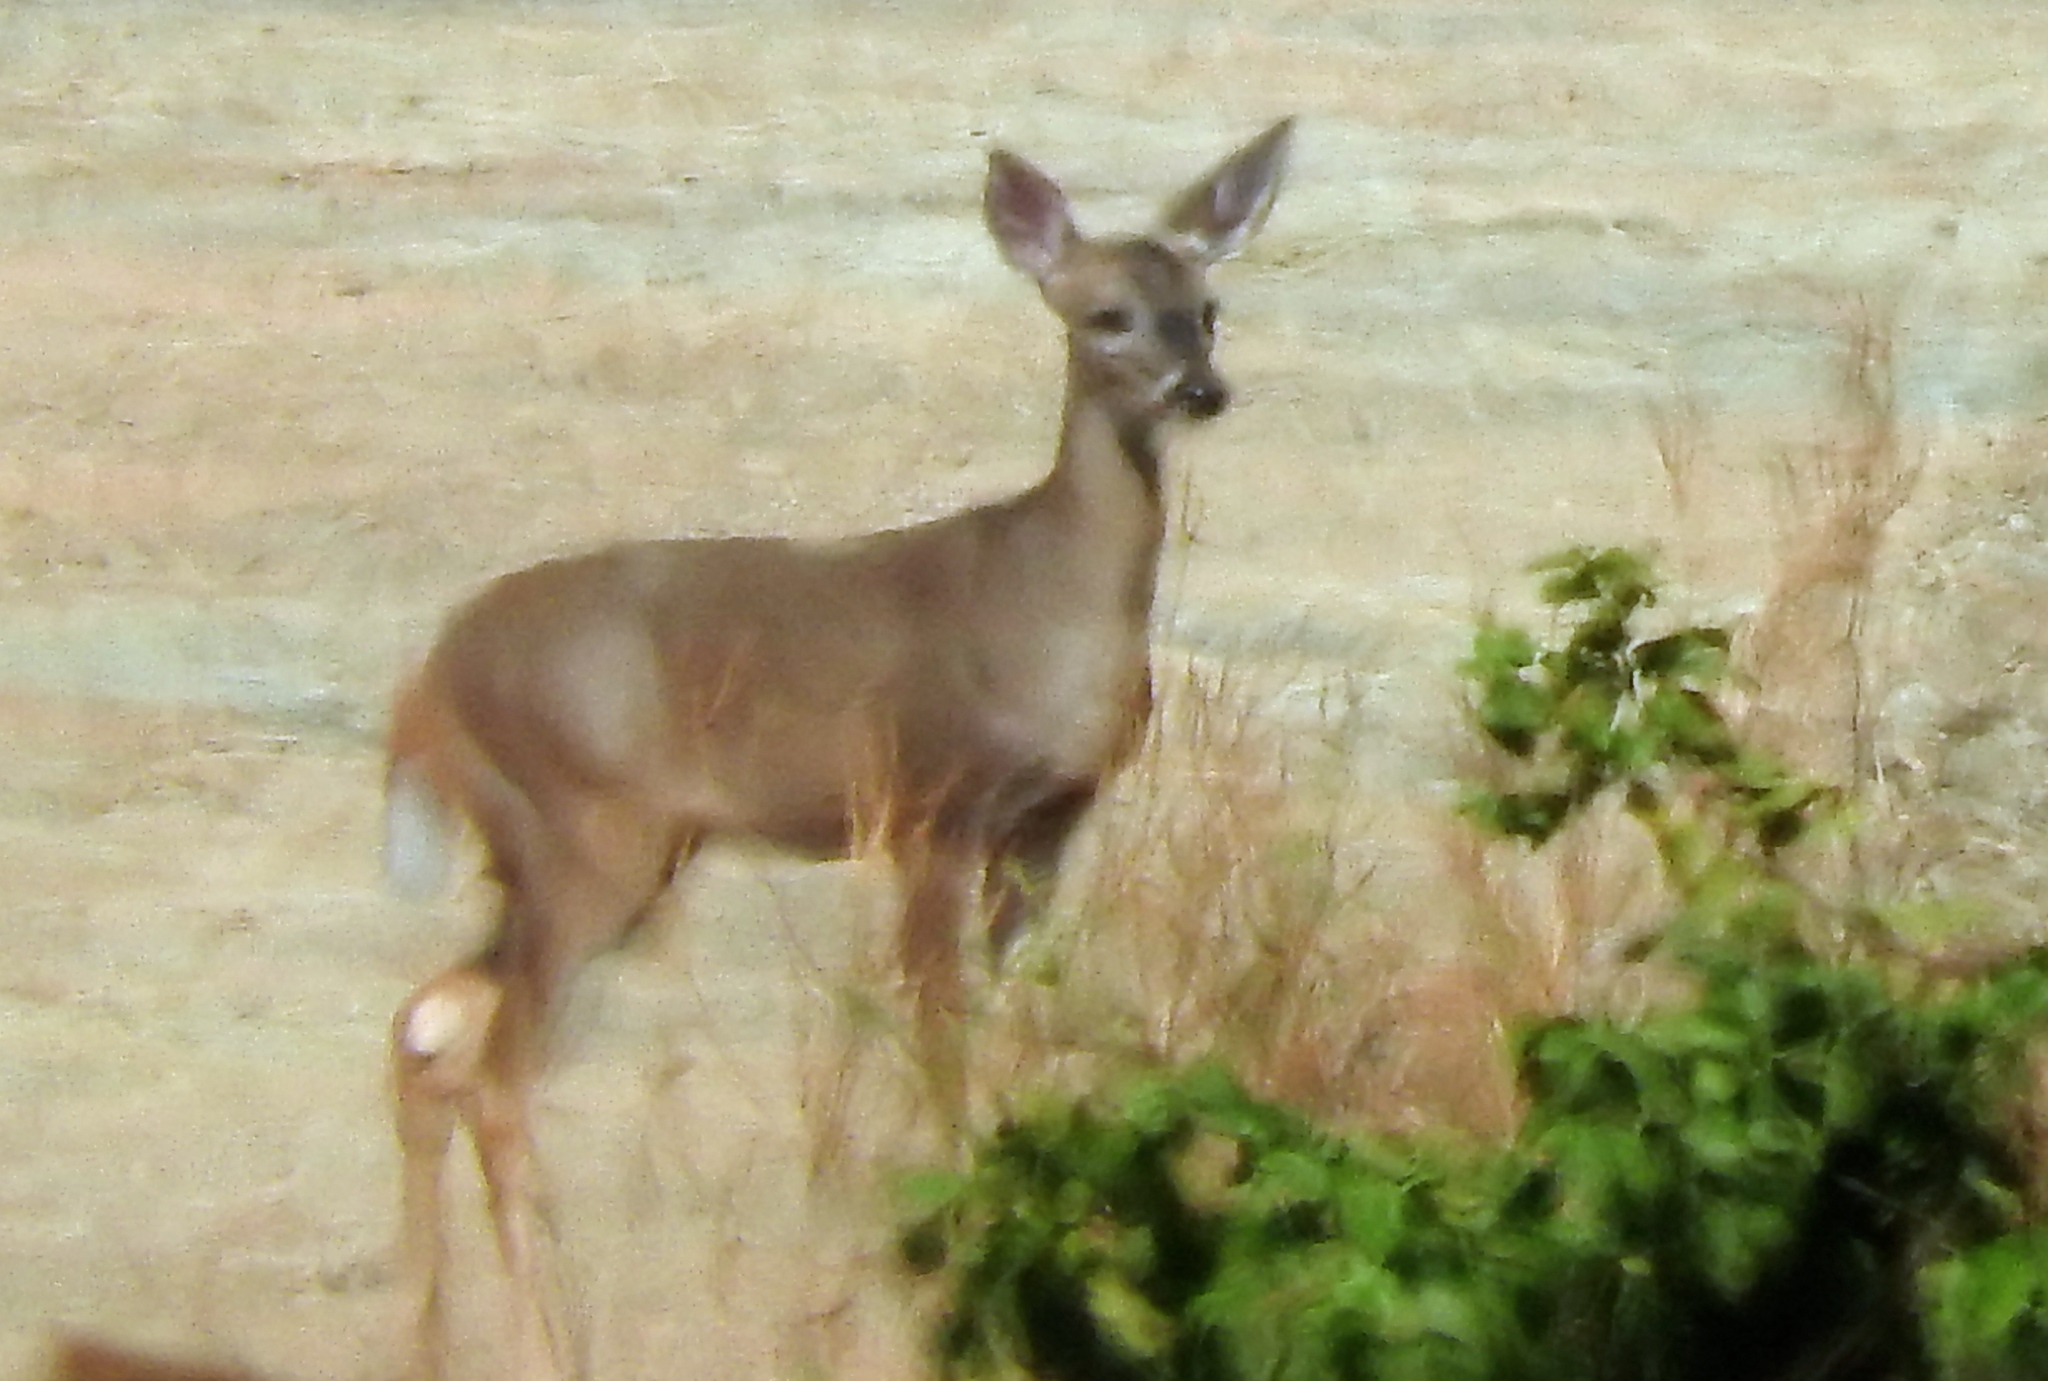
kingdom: Animalia
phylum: Chordata
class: Mammalia
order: Artiodactyla
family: Cervidae
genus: Odocoileus
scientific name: Odocoileus virginianus
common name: White-tailed deer
